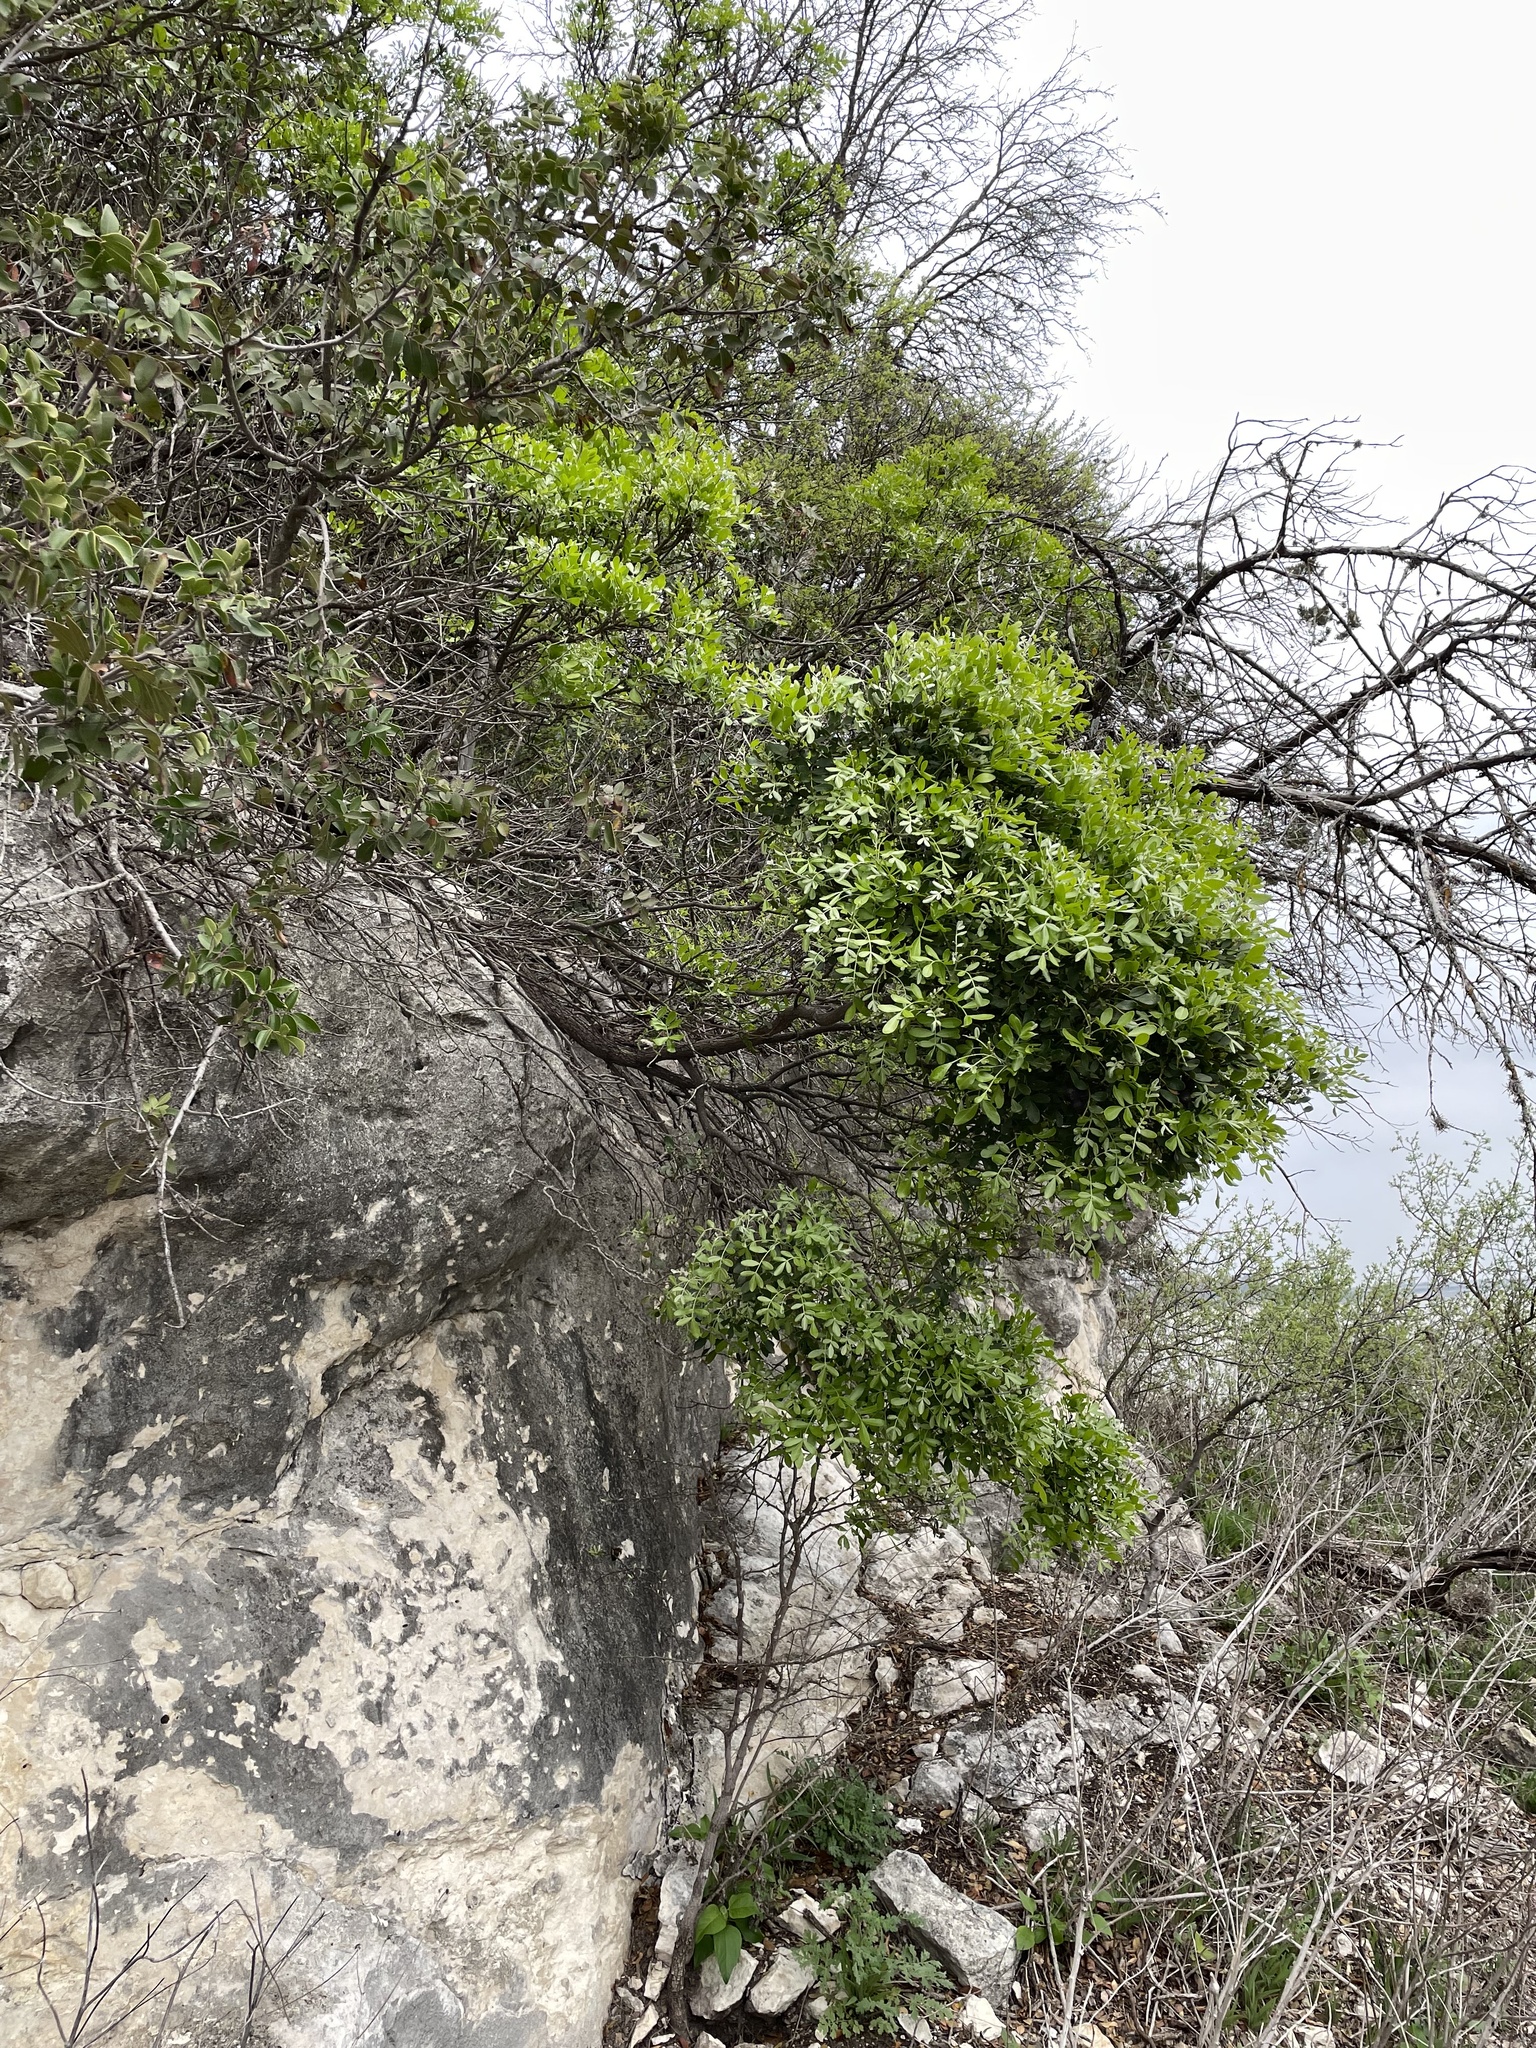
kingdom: Plantae
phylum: Tracheophyta
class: Magnoliopsida
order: Fabales
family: Fabaceae
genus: Dermatophyllum
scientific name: Dermatophyllum secundiflorum
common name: Texas-mountain-laurel
